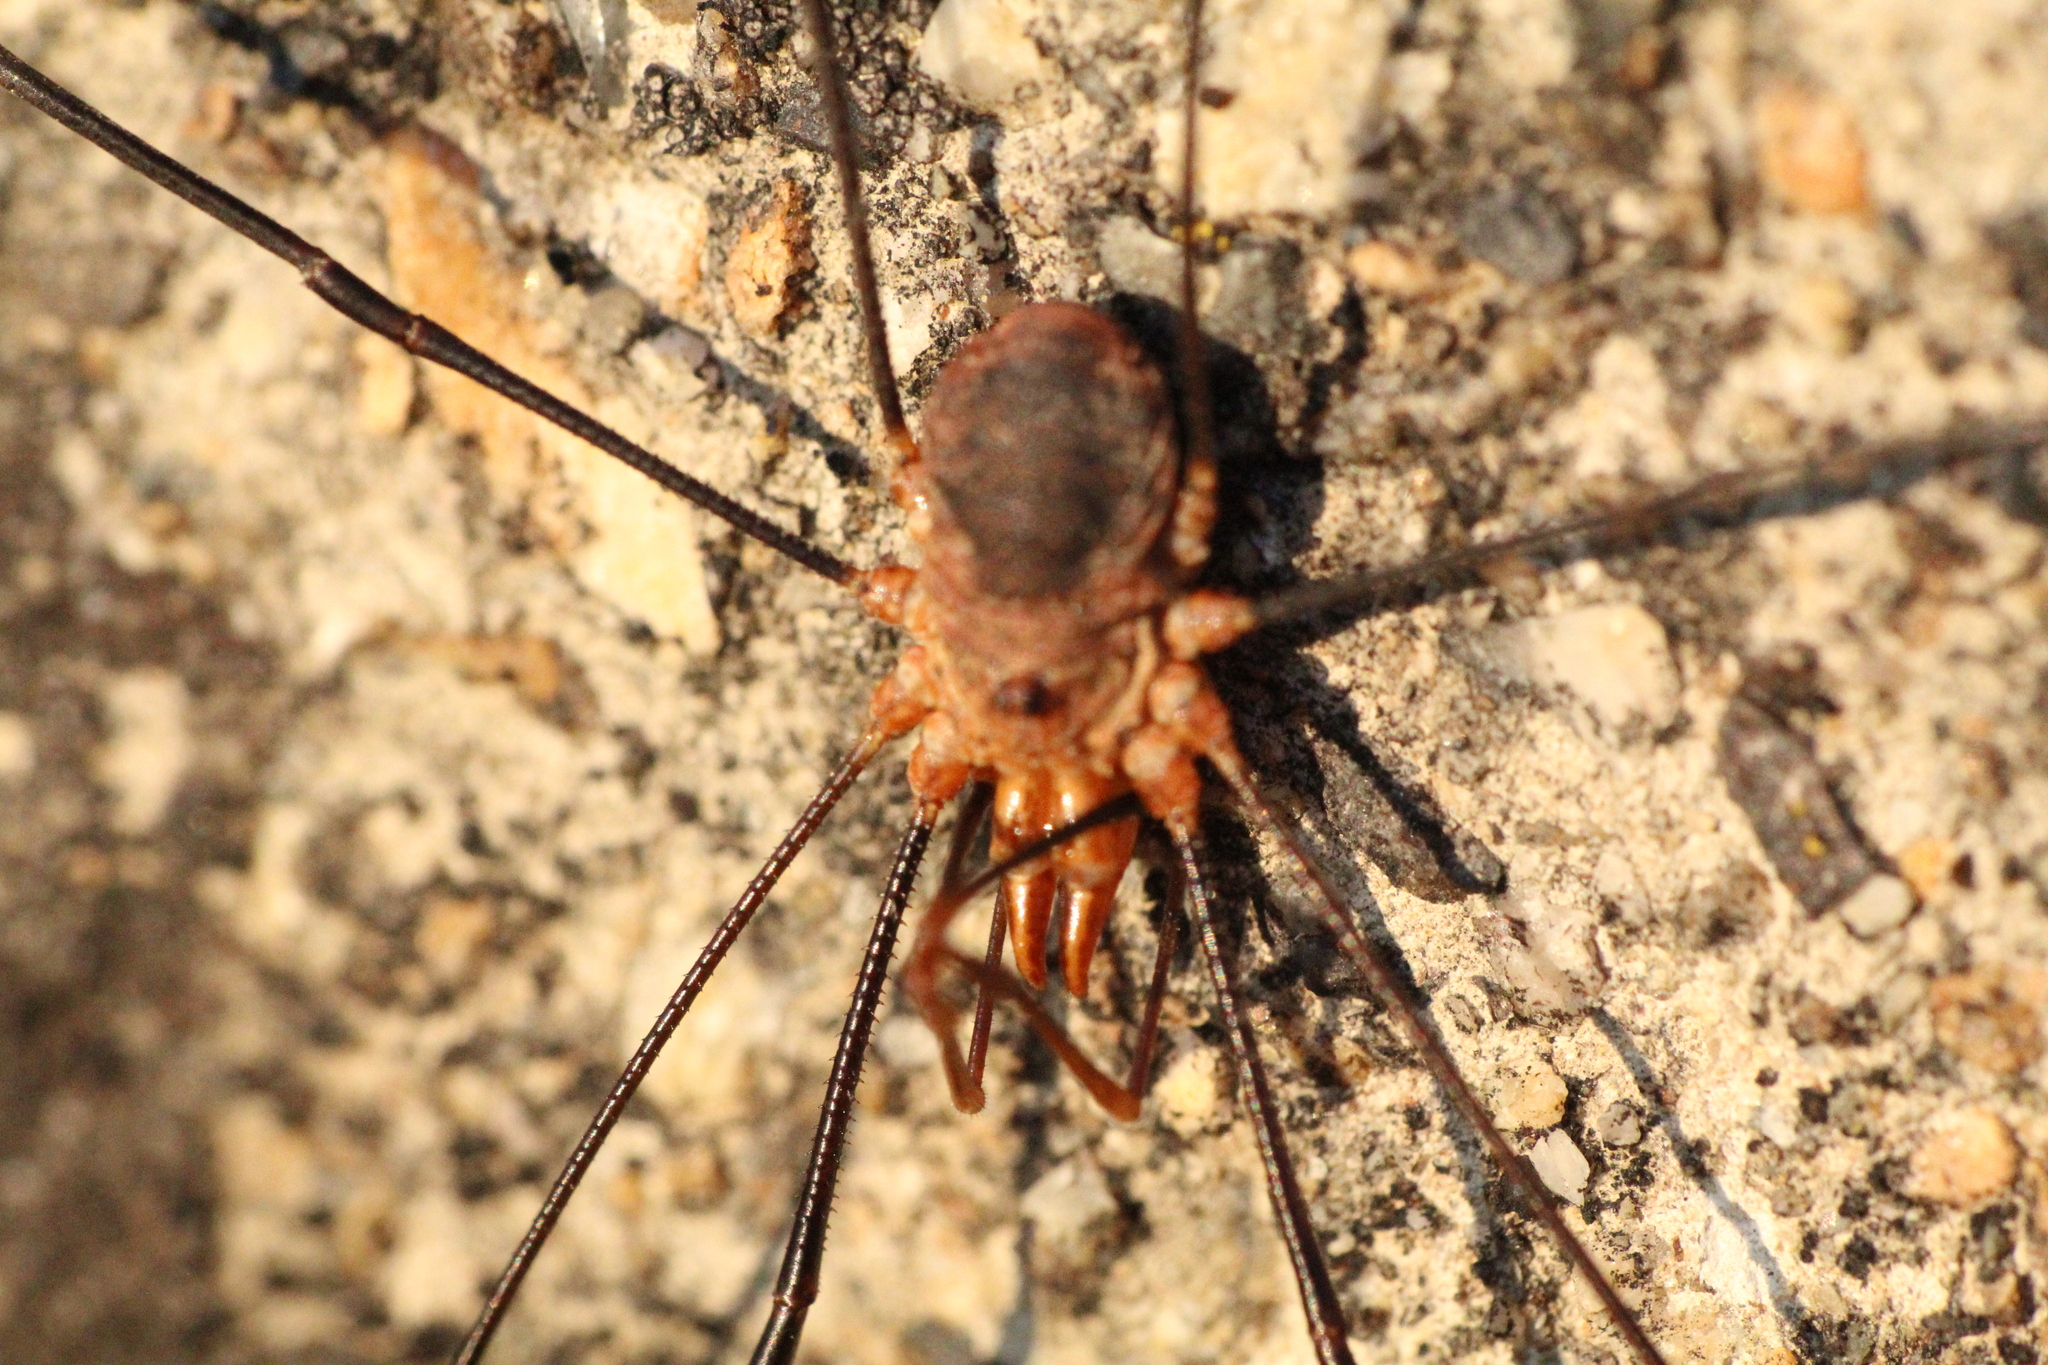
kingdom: Animalia
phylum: Arthropoda
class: Arachnida
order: Opiliones
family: Phalangiidae
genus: Phalangium
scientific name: Phalangium opilio
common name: Daddy longleg
